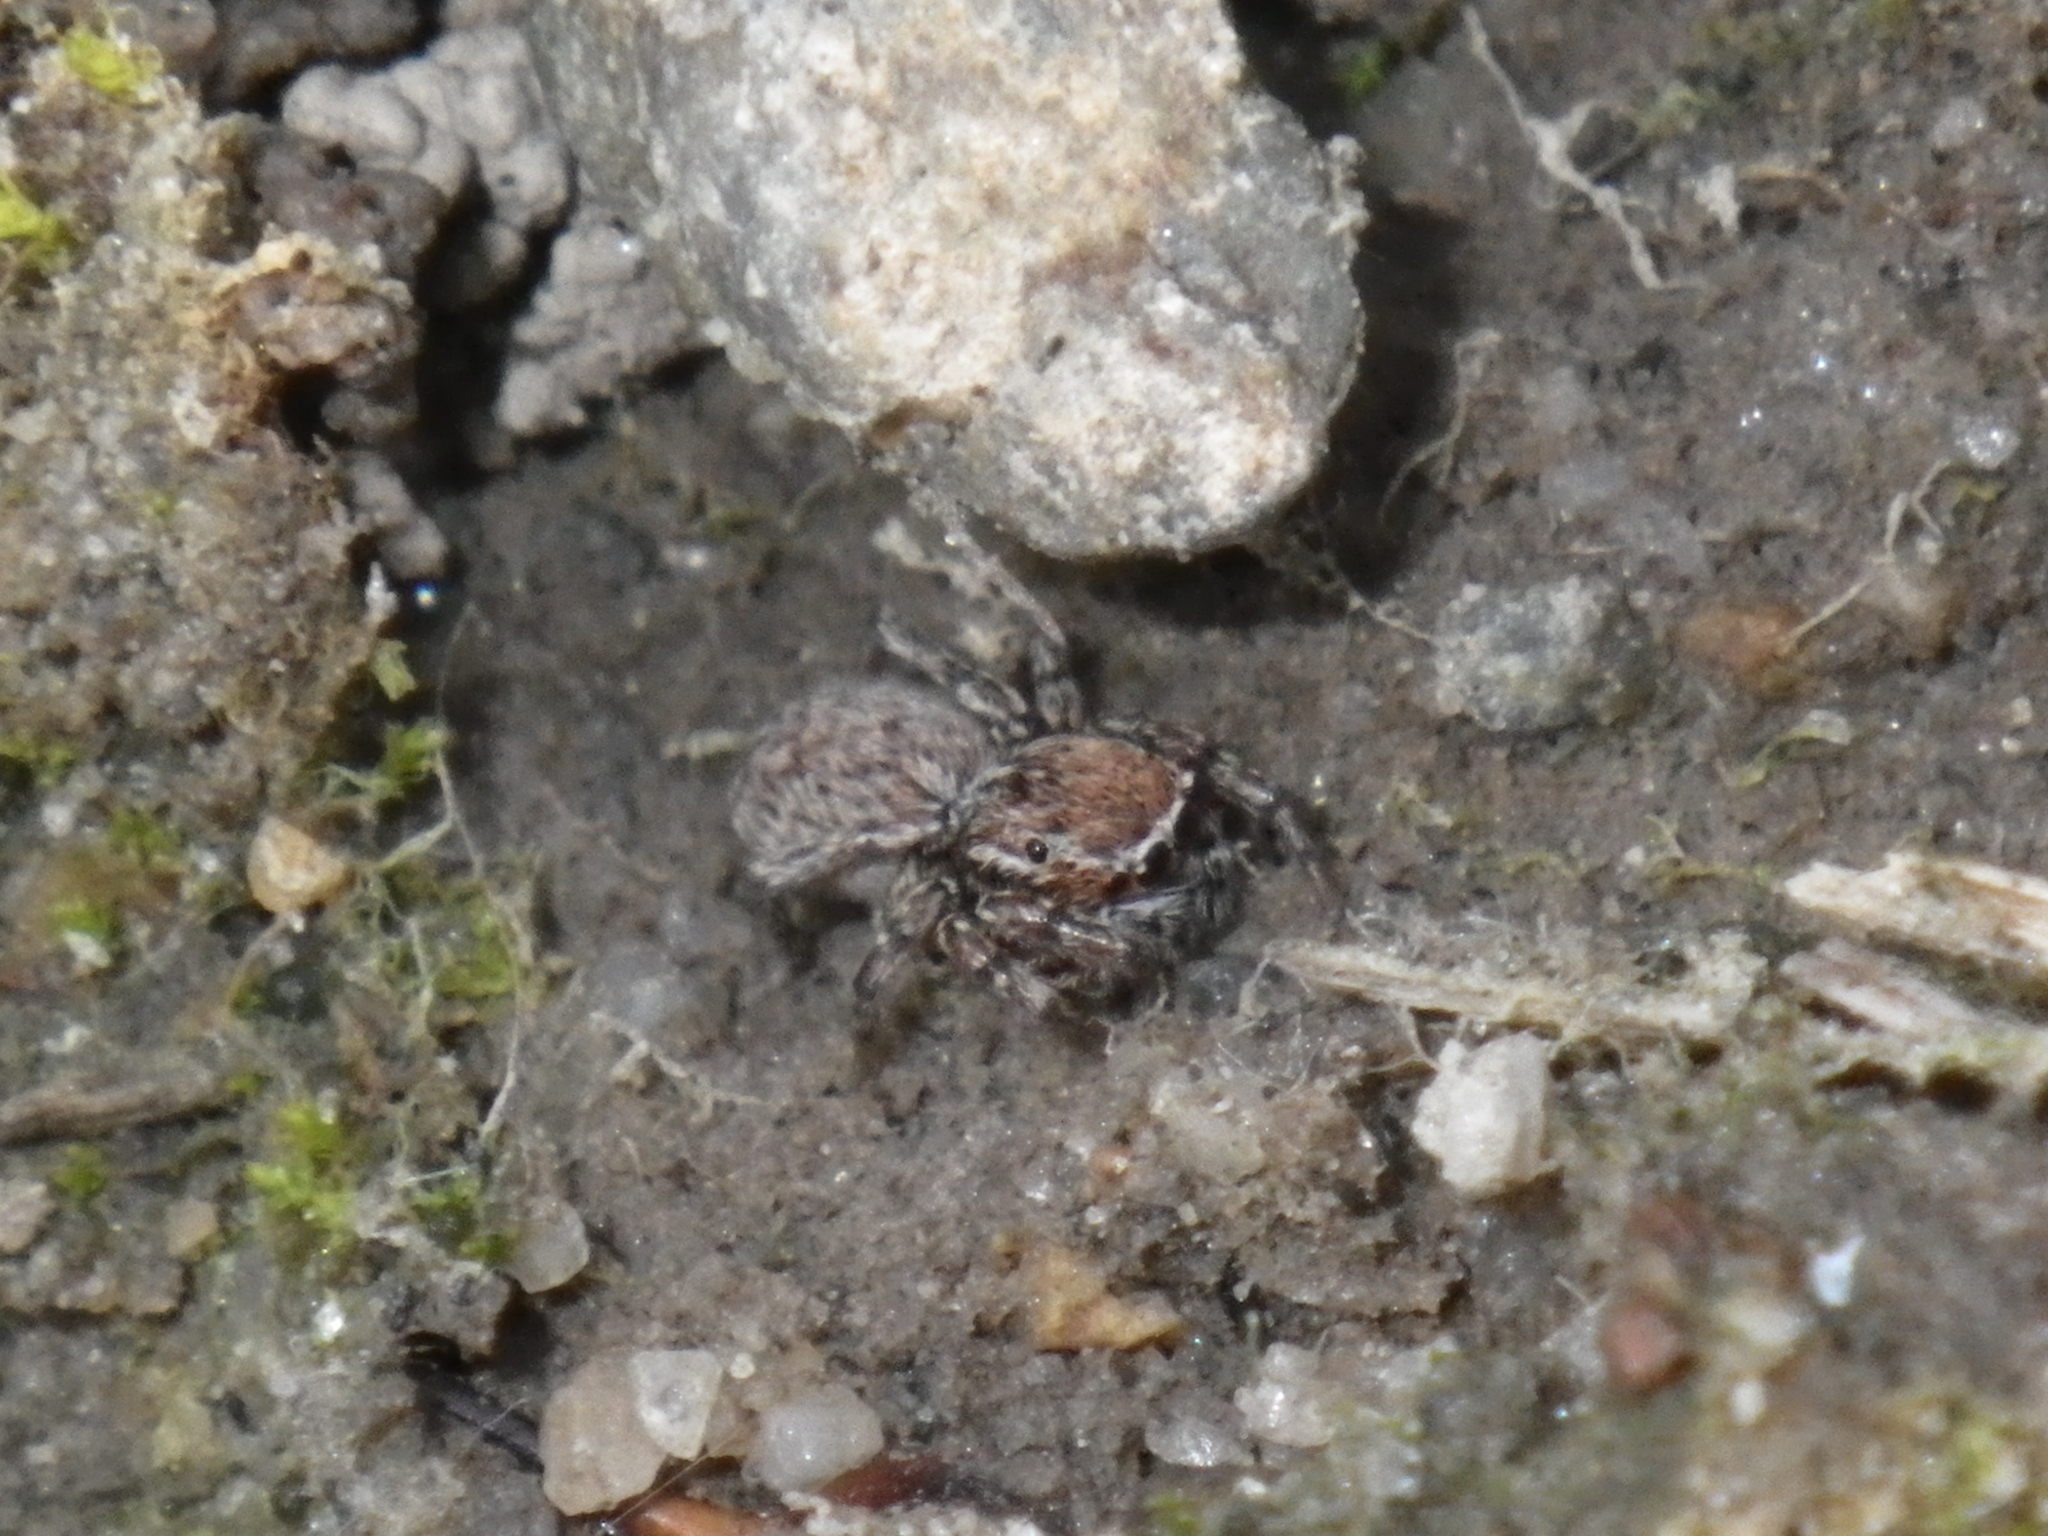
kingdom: Animalia
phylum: Arthropoda
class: Arachnida
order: Araneae
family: Salticidae
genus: Attinella
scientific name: Attinella dorsata
